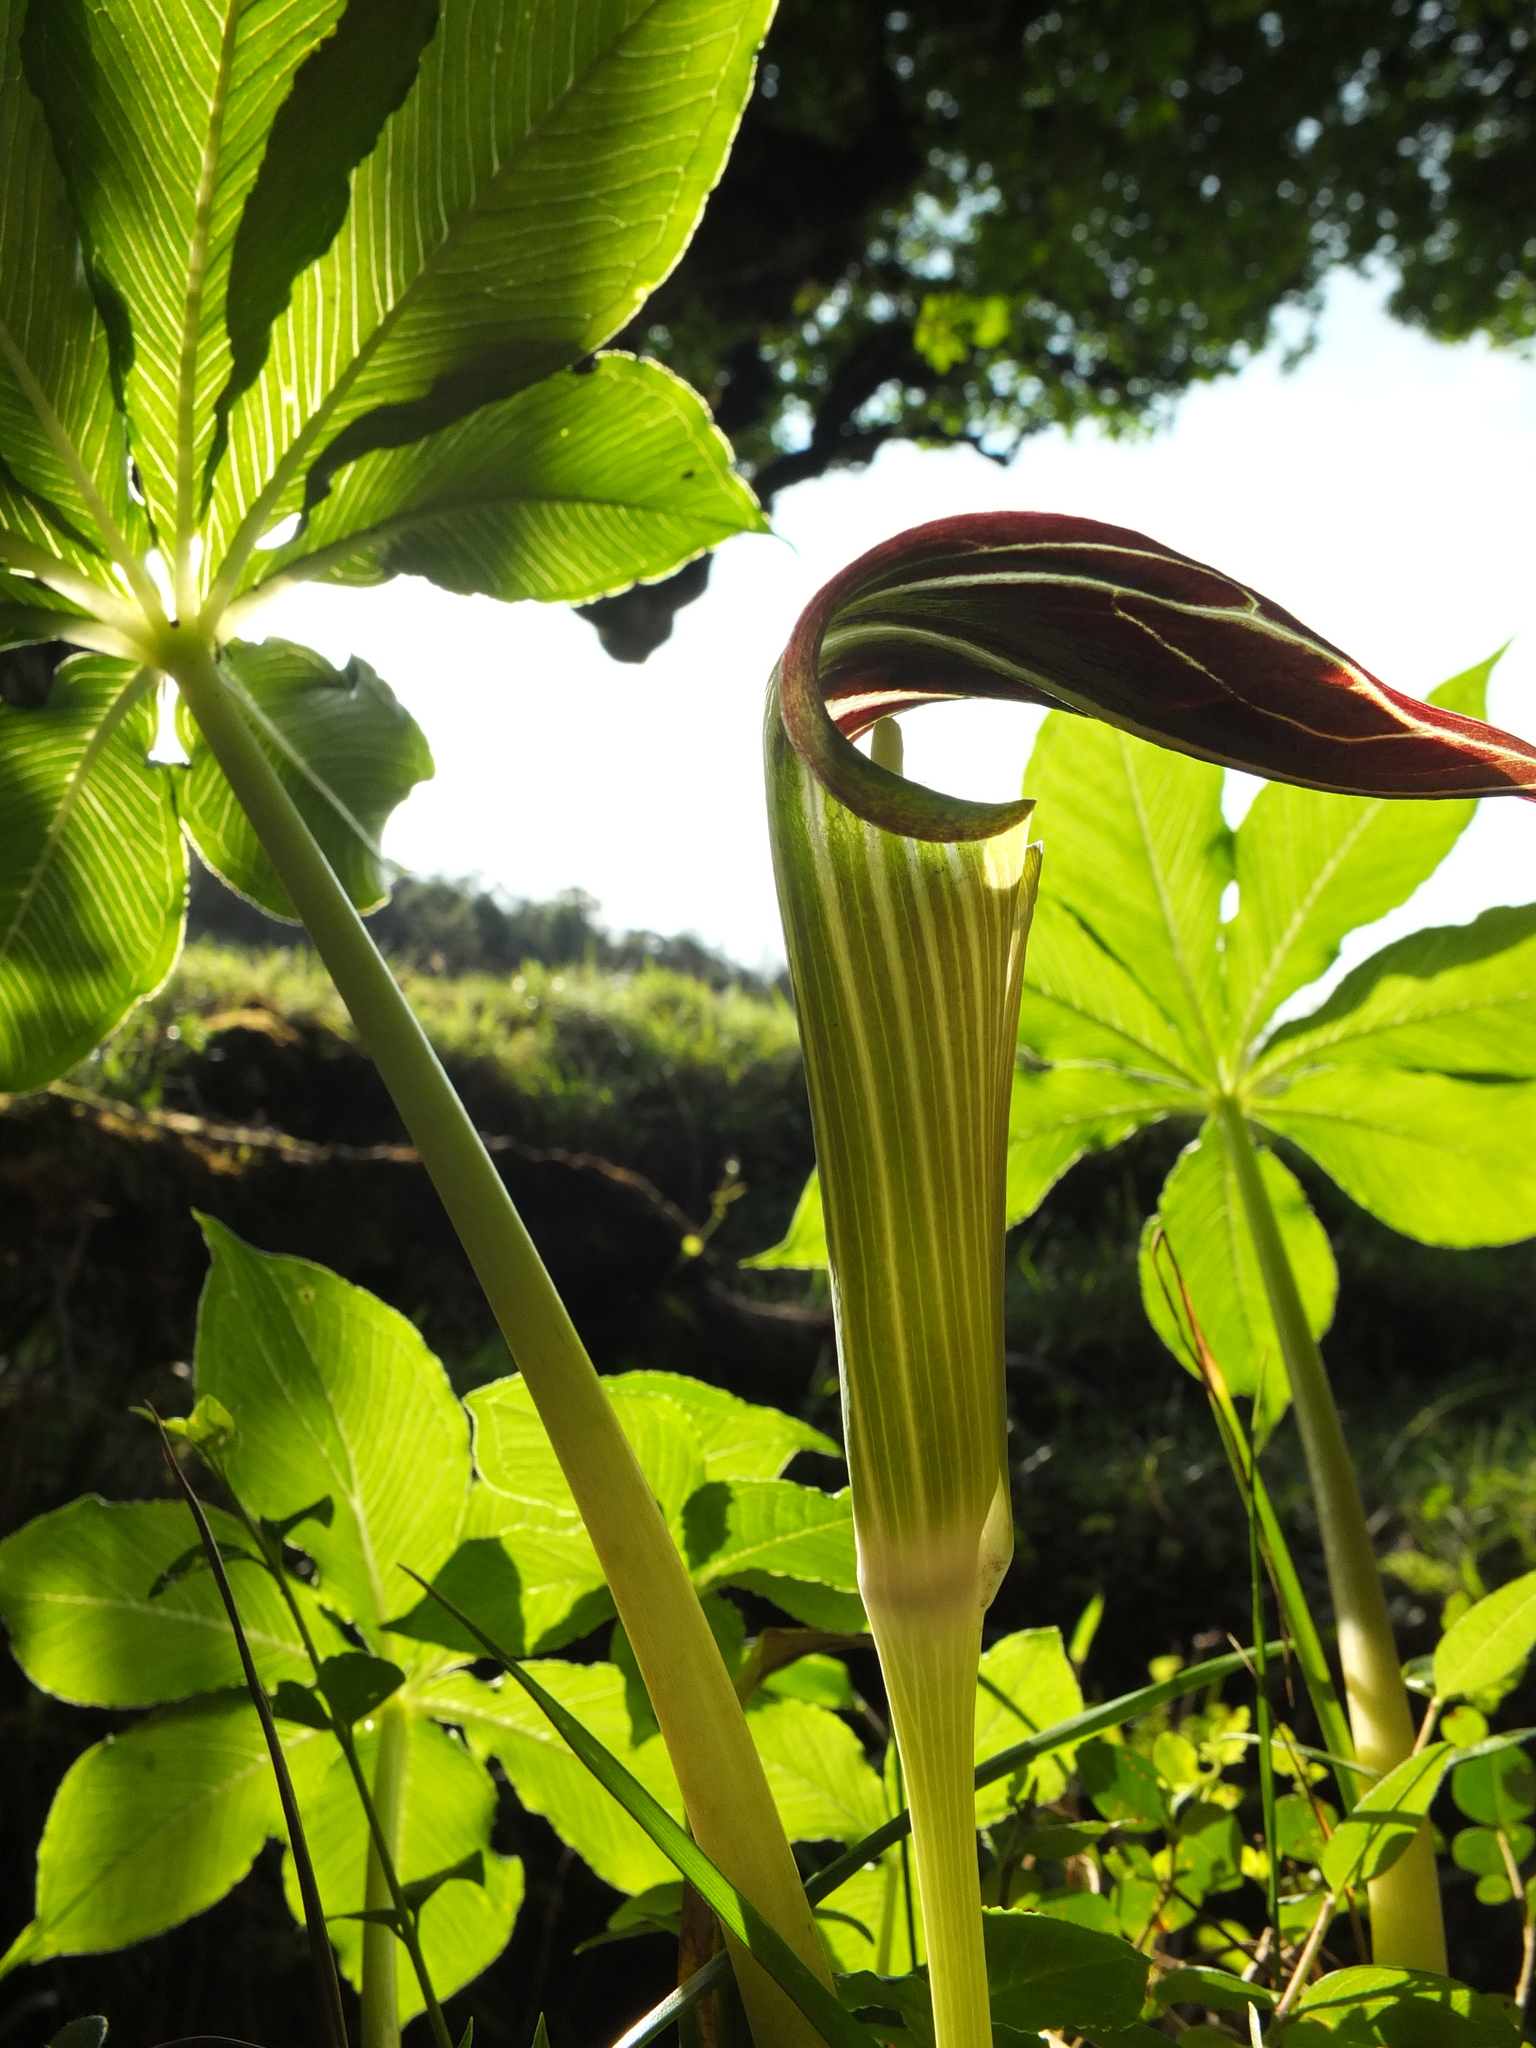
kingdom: Plantae
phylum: Tracheophyta
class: Liliopsida
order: Alismatales
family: Araceae
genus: Arisaema
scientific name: Arisaema leschenaultii
